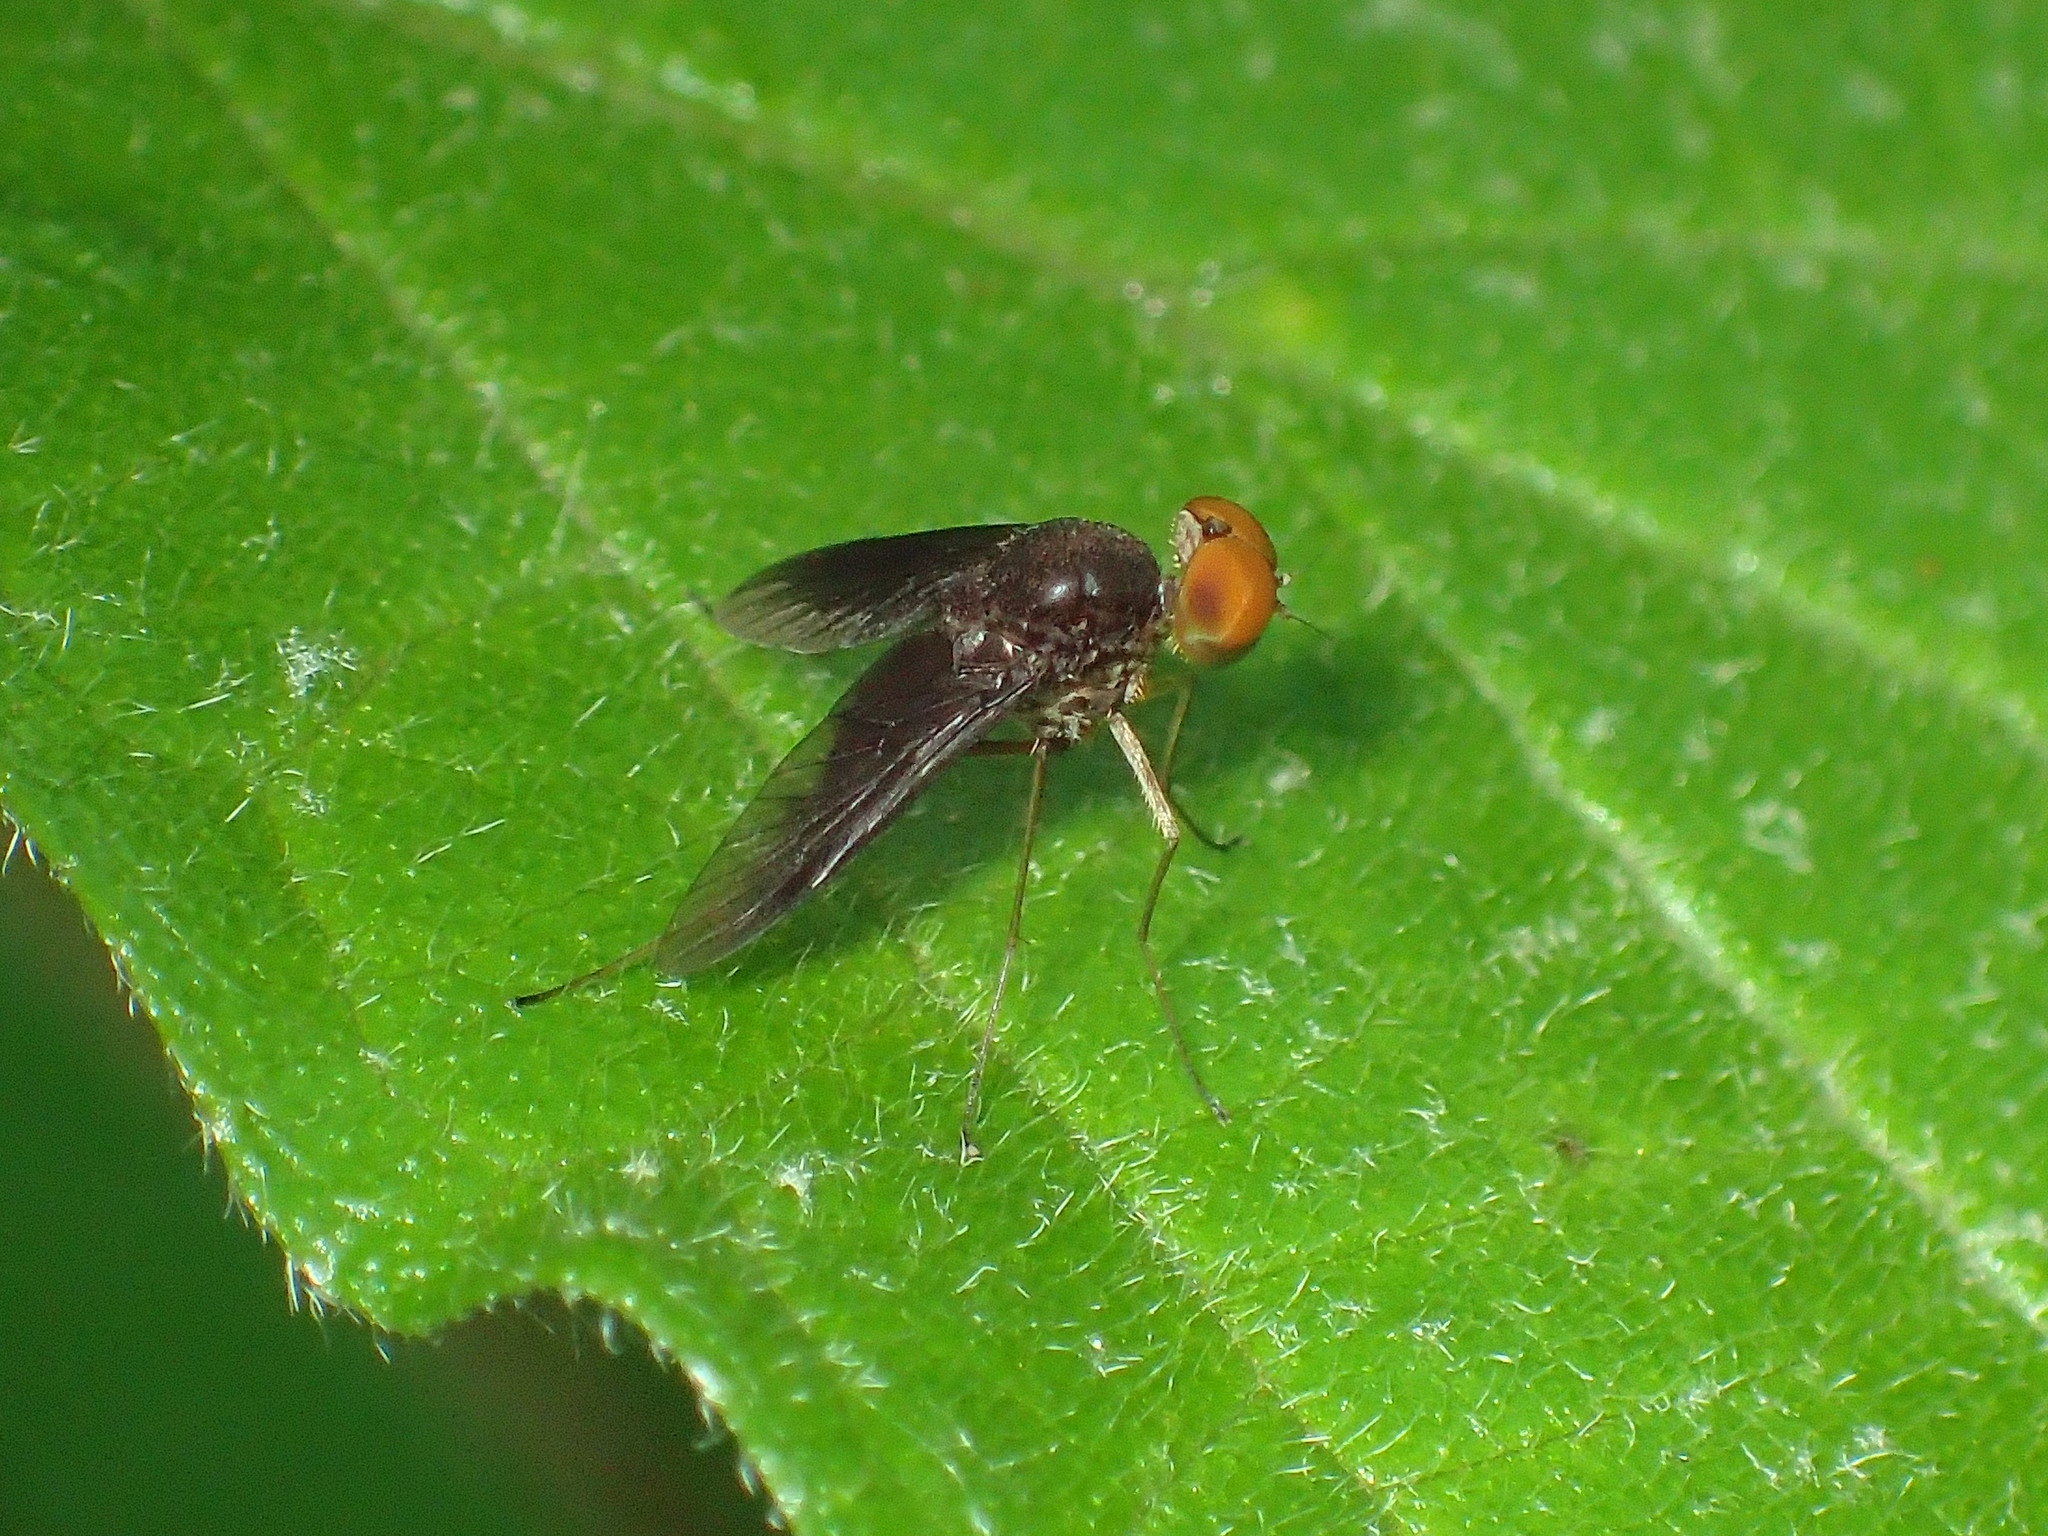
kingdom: Animalia
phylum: Arthropoda
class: Insecta
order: Diptera
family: Rhagionidae
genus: Chrysopilus
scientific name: Chrysopilus quadratus
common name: Quadrate snipe fly
